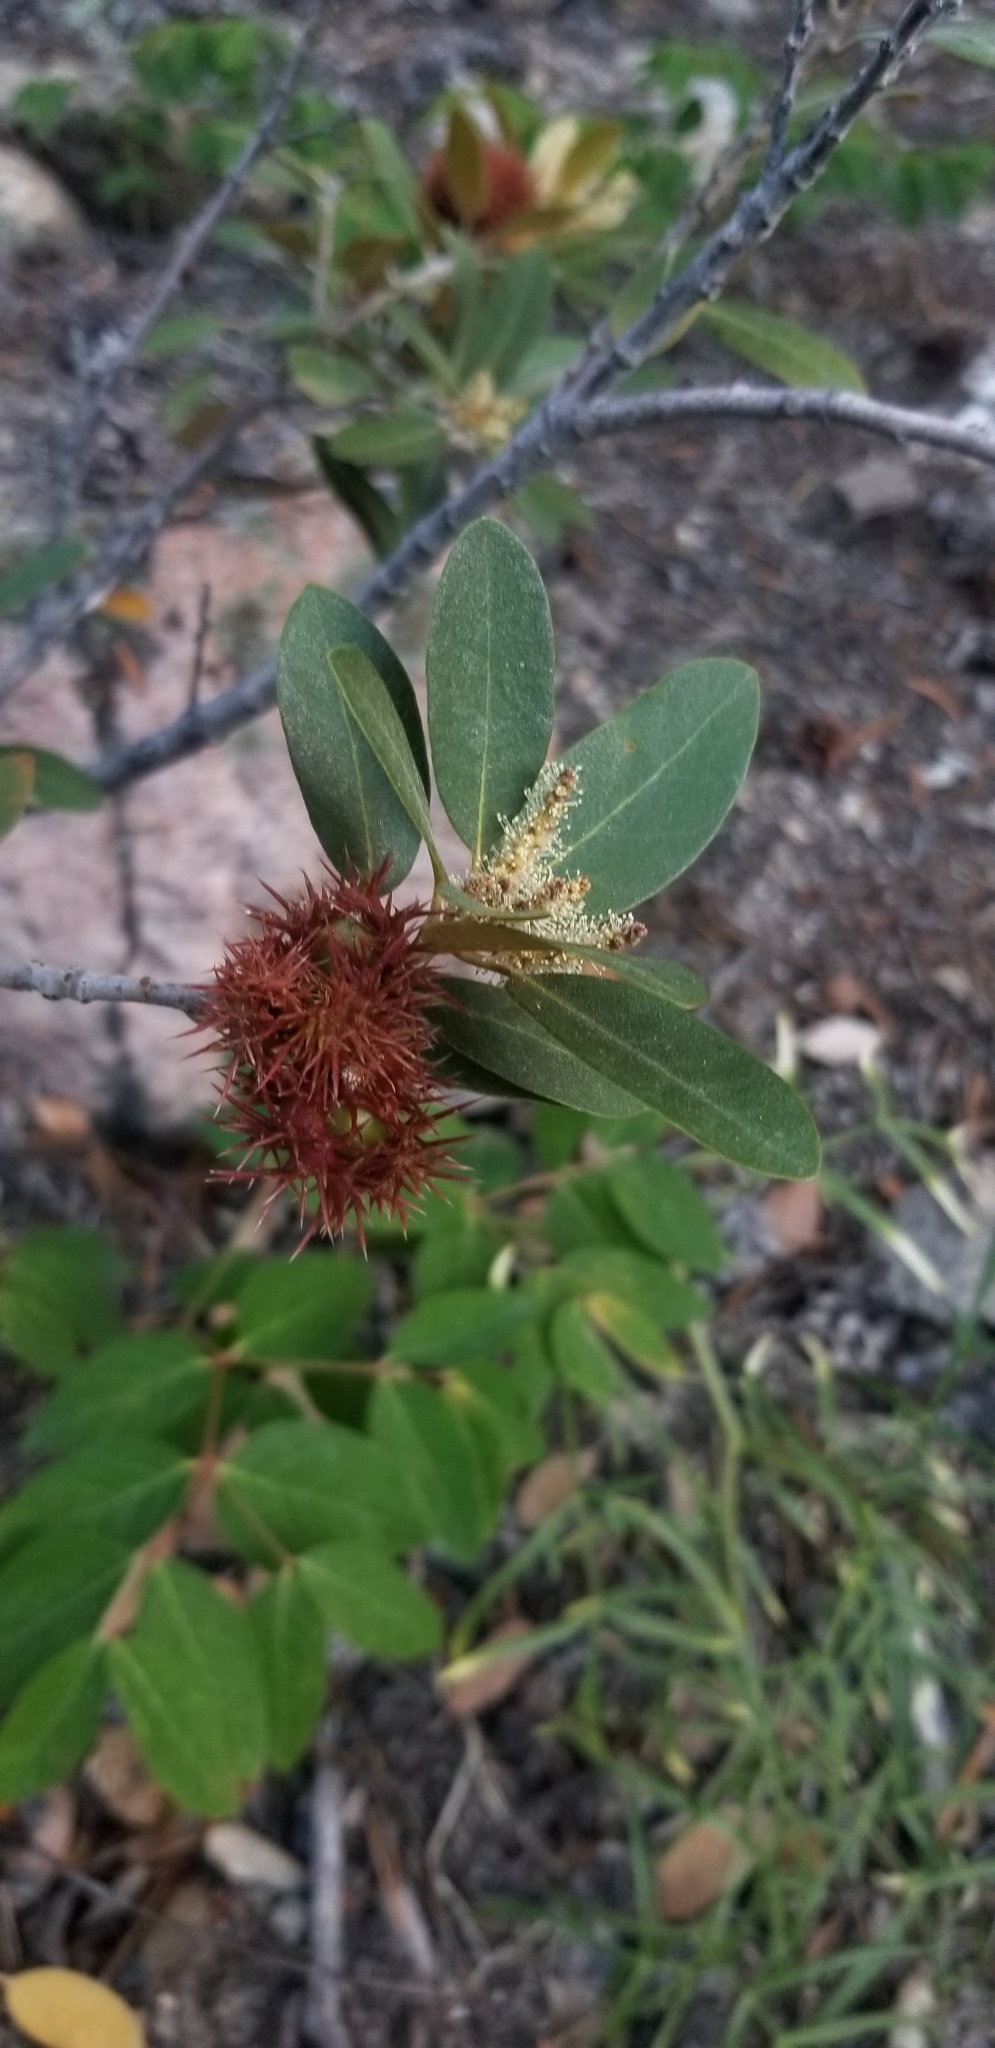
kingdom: Plantae
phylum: Tracheophyta
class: Magnoliopsida
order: Fagales
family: Fagaceae
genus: Chrysolepis
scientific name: Chrysolepis sempervirens
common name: Bush chinquapin
